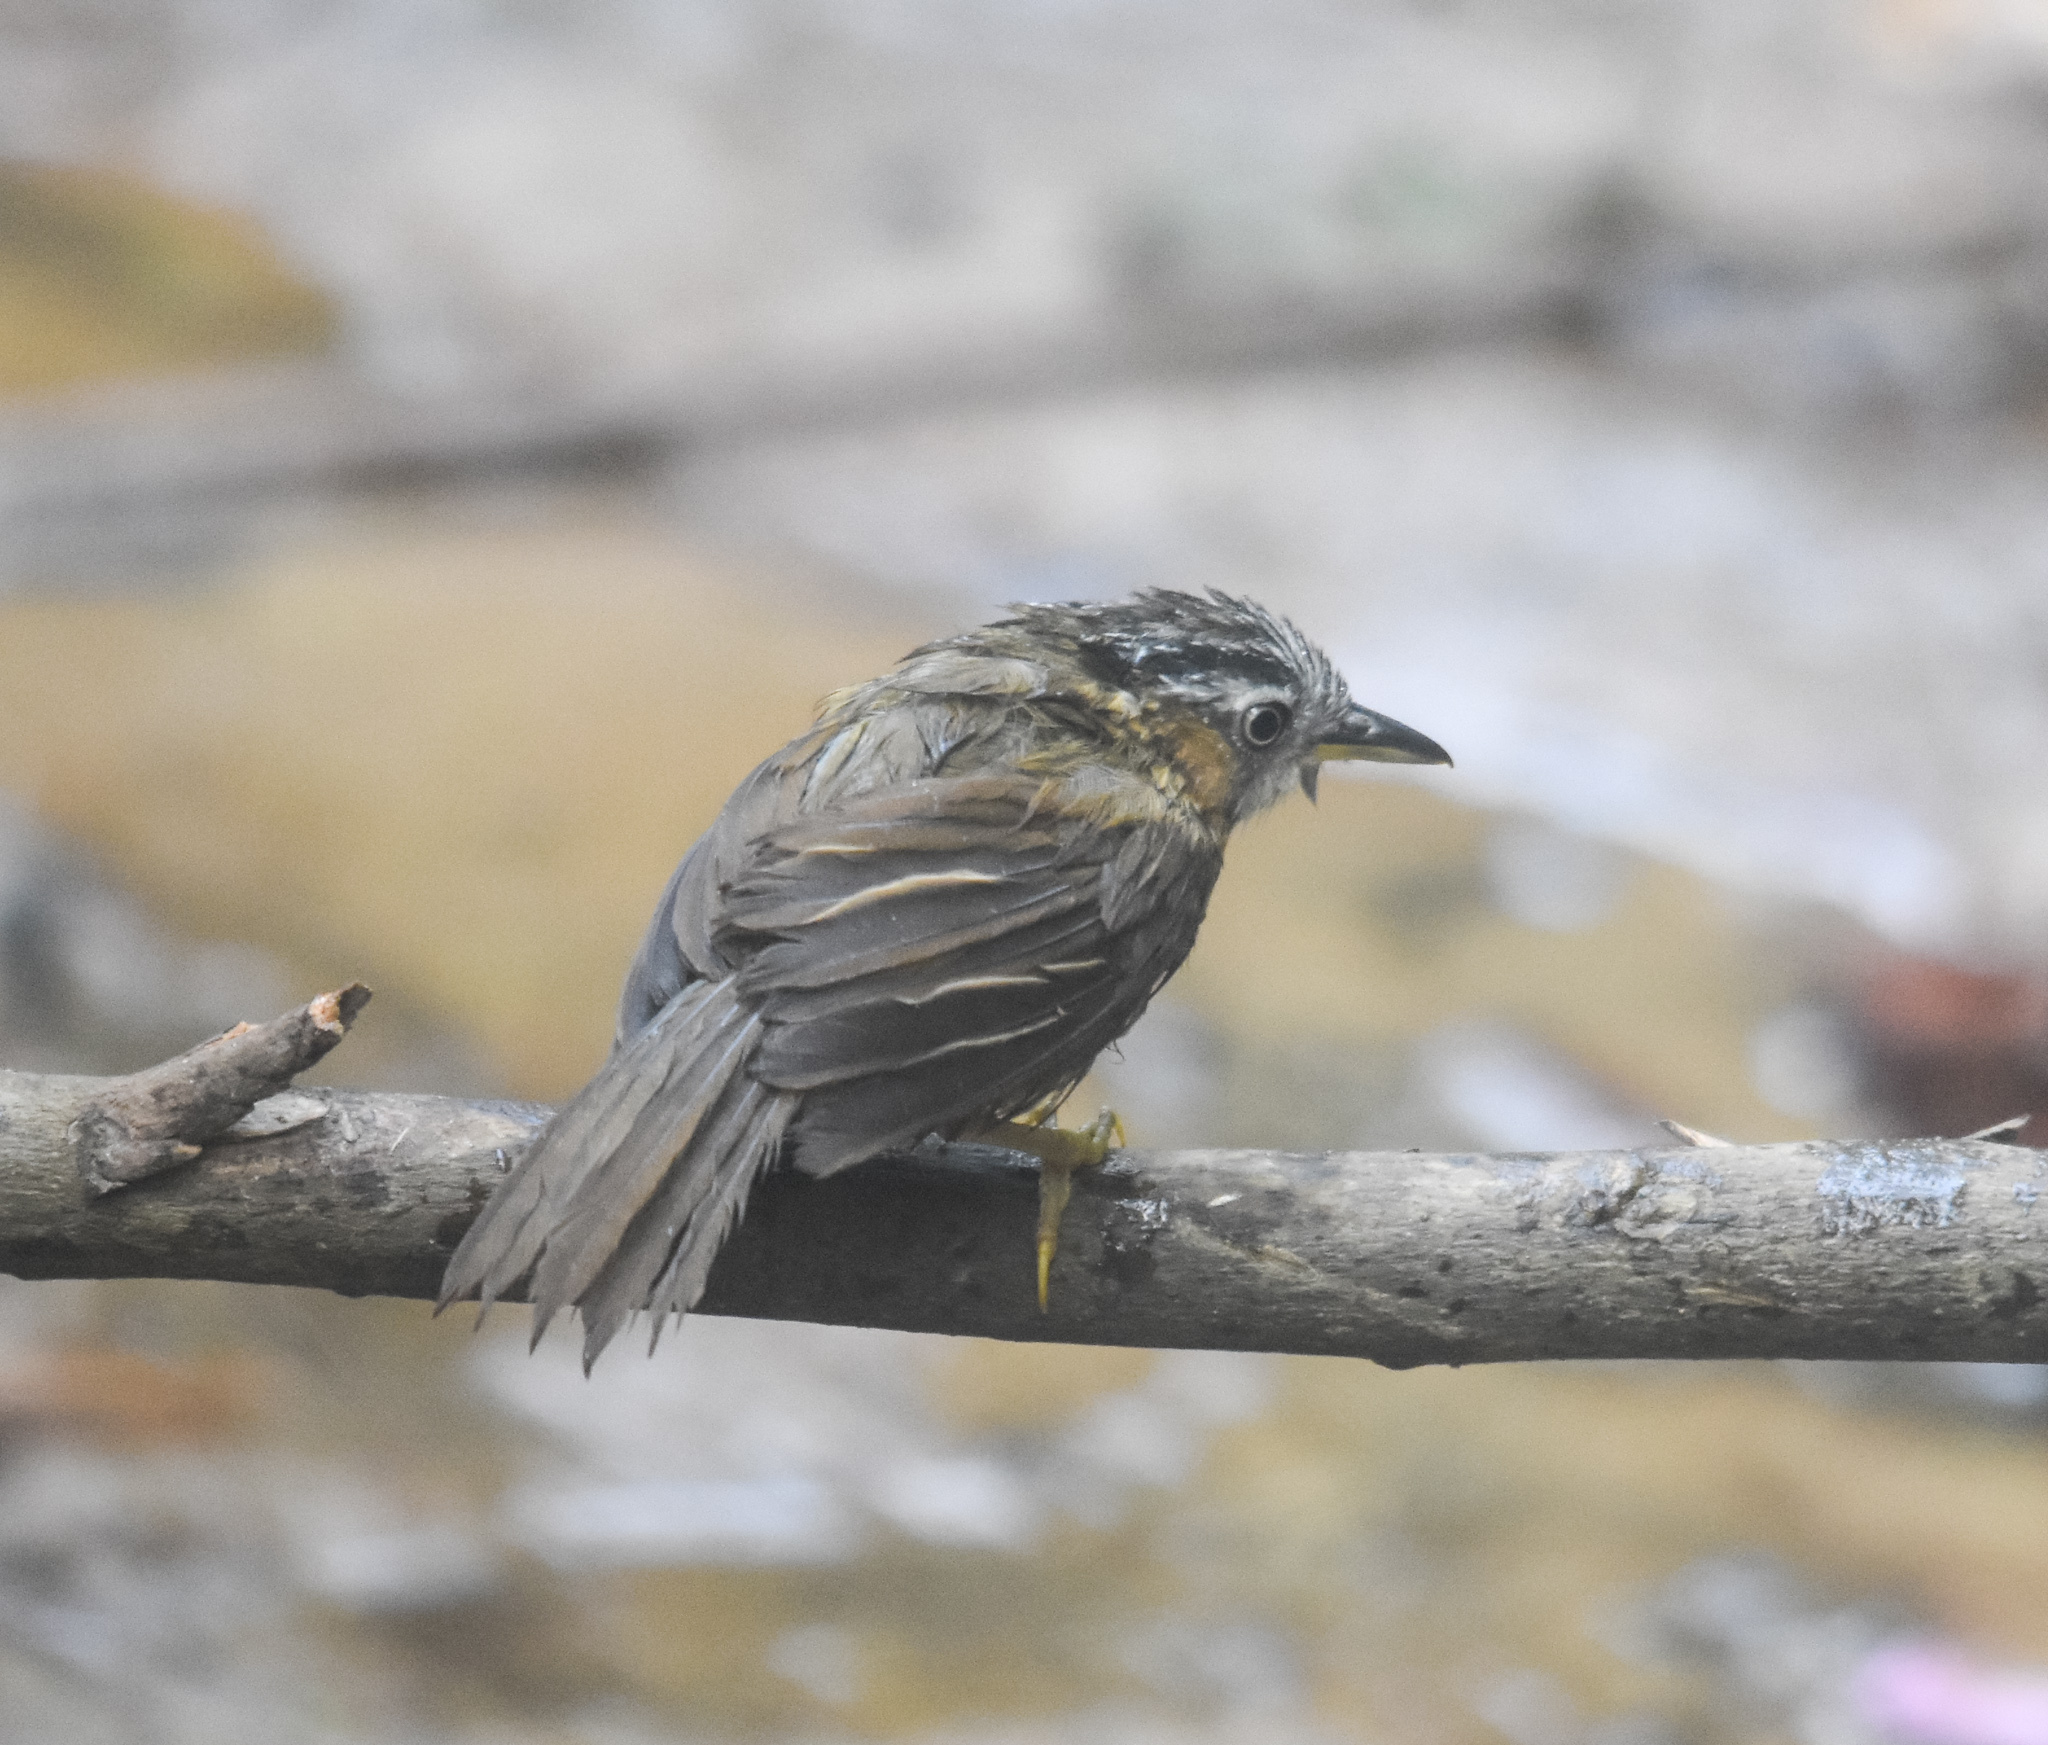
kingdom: Animalia
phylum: Chordata
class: Aves
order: Passeriformes
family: Timaliidae
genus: Stachyris
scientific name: Stachyris nigriceps
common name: Grey-throated babbler
